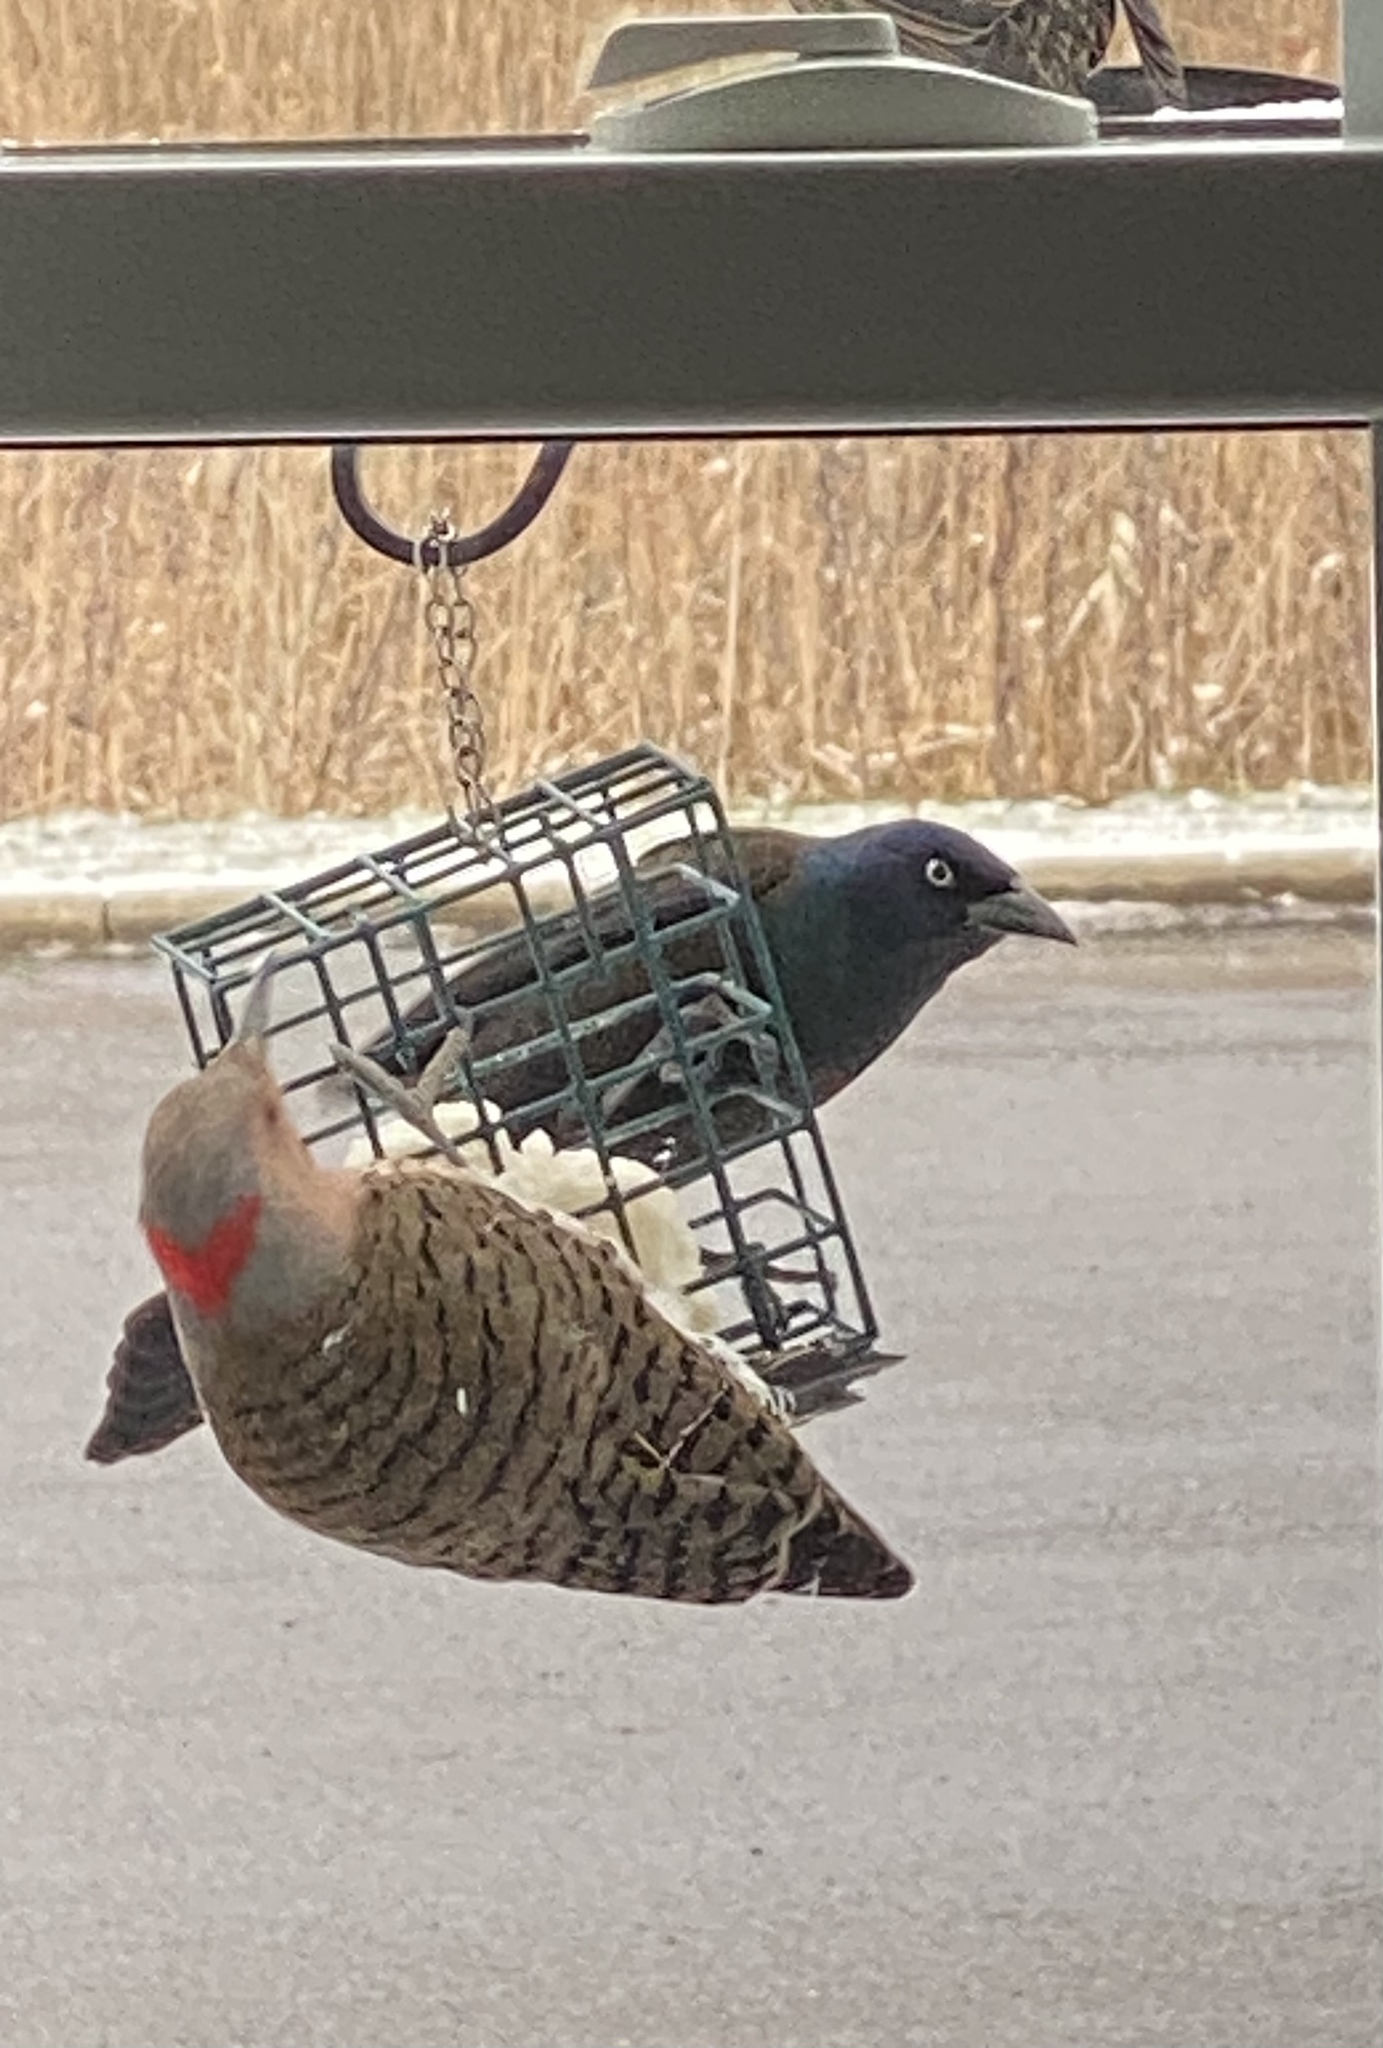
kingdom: Animalia
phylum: Chordata
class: Aves
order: Passeriformes
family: Icteridae
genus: Quiscalus
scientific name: Quiscalus quiscula
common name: Common grackle
